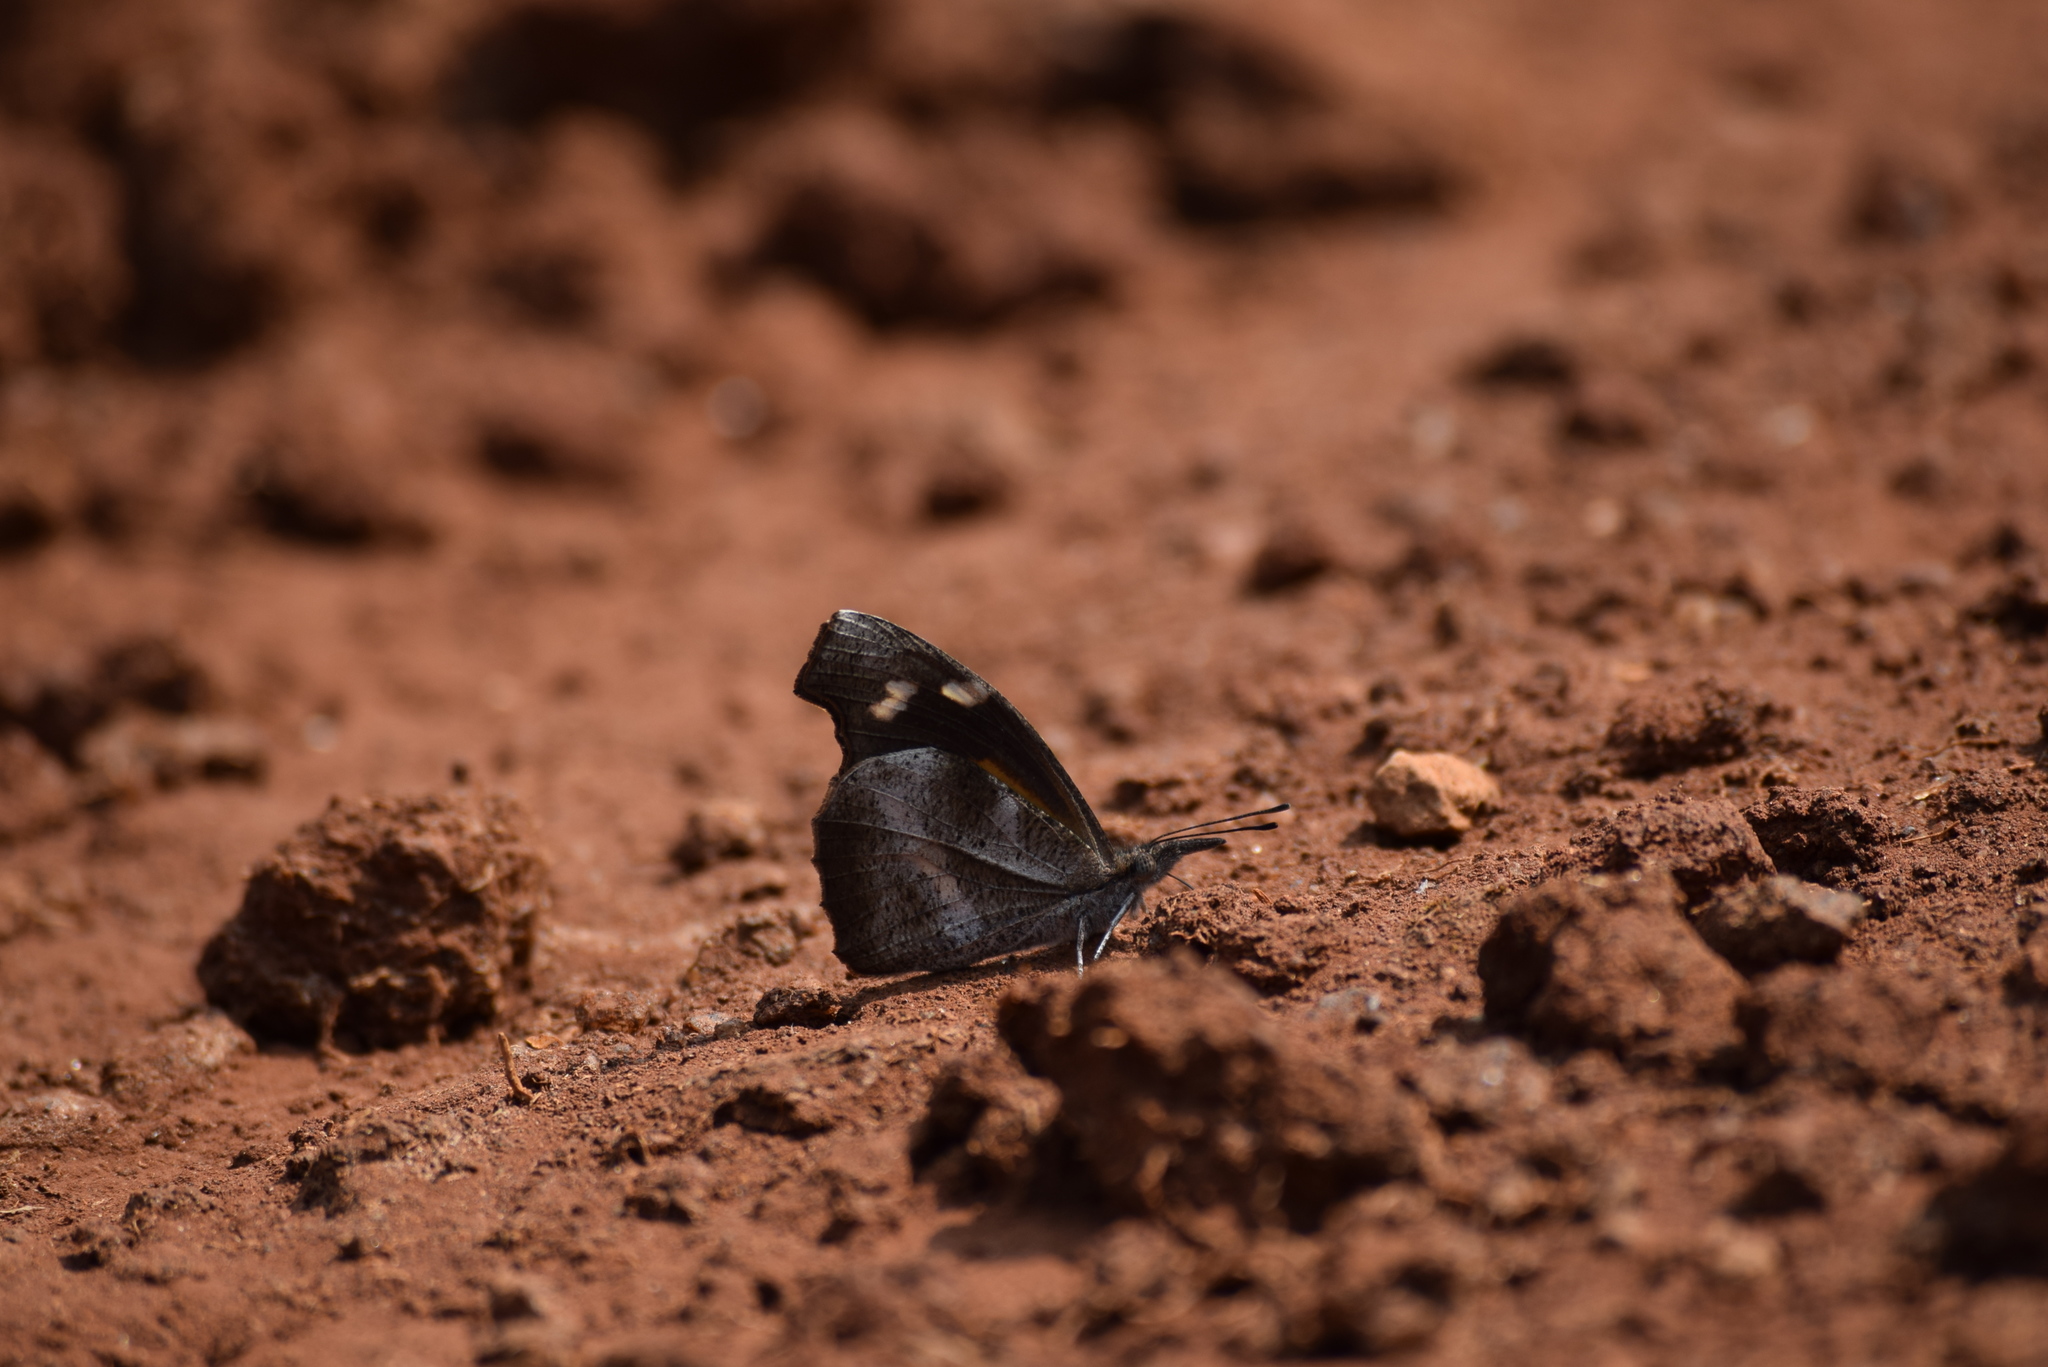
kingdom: Animalia
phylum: Arthropoda
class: Insecta
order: Lepidoptera
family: Nymphalidae
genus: Libythea
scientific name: Libythea lepita
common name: Common beak
